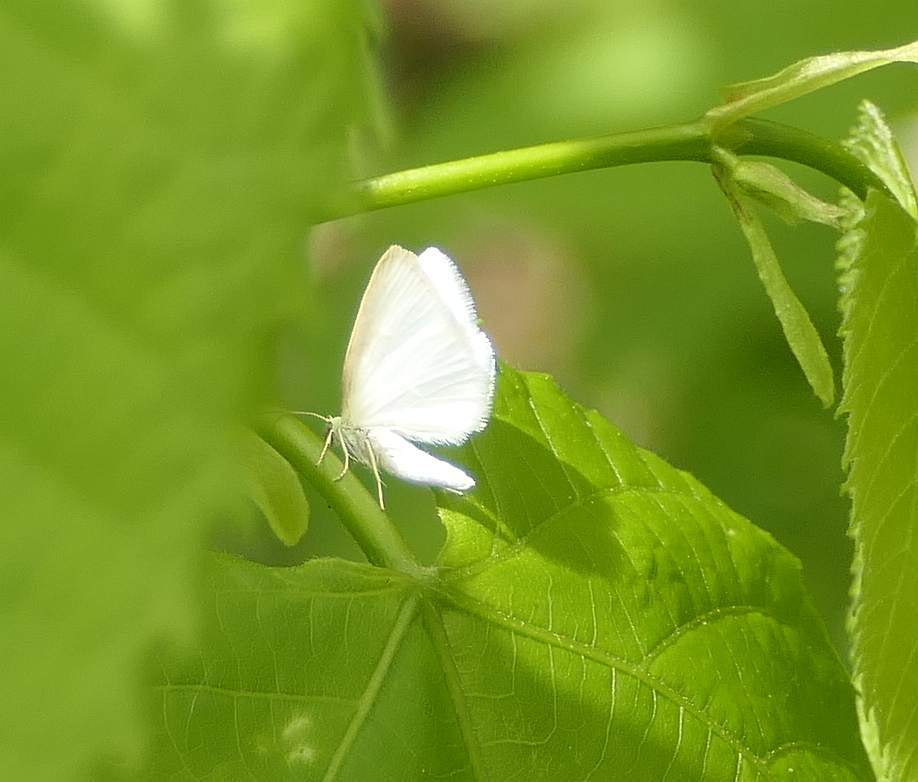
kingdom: Animalia
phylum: Arthropoda
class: Insecta
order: Lepidoptera
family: Geometridae
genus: Lomographa
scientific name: Lomographa vestaliata
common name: White spring moth
